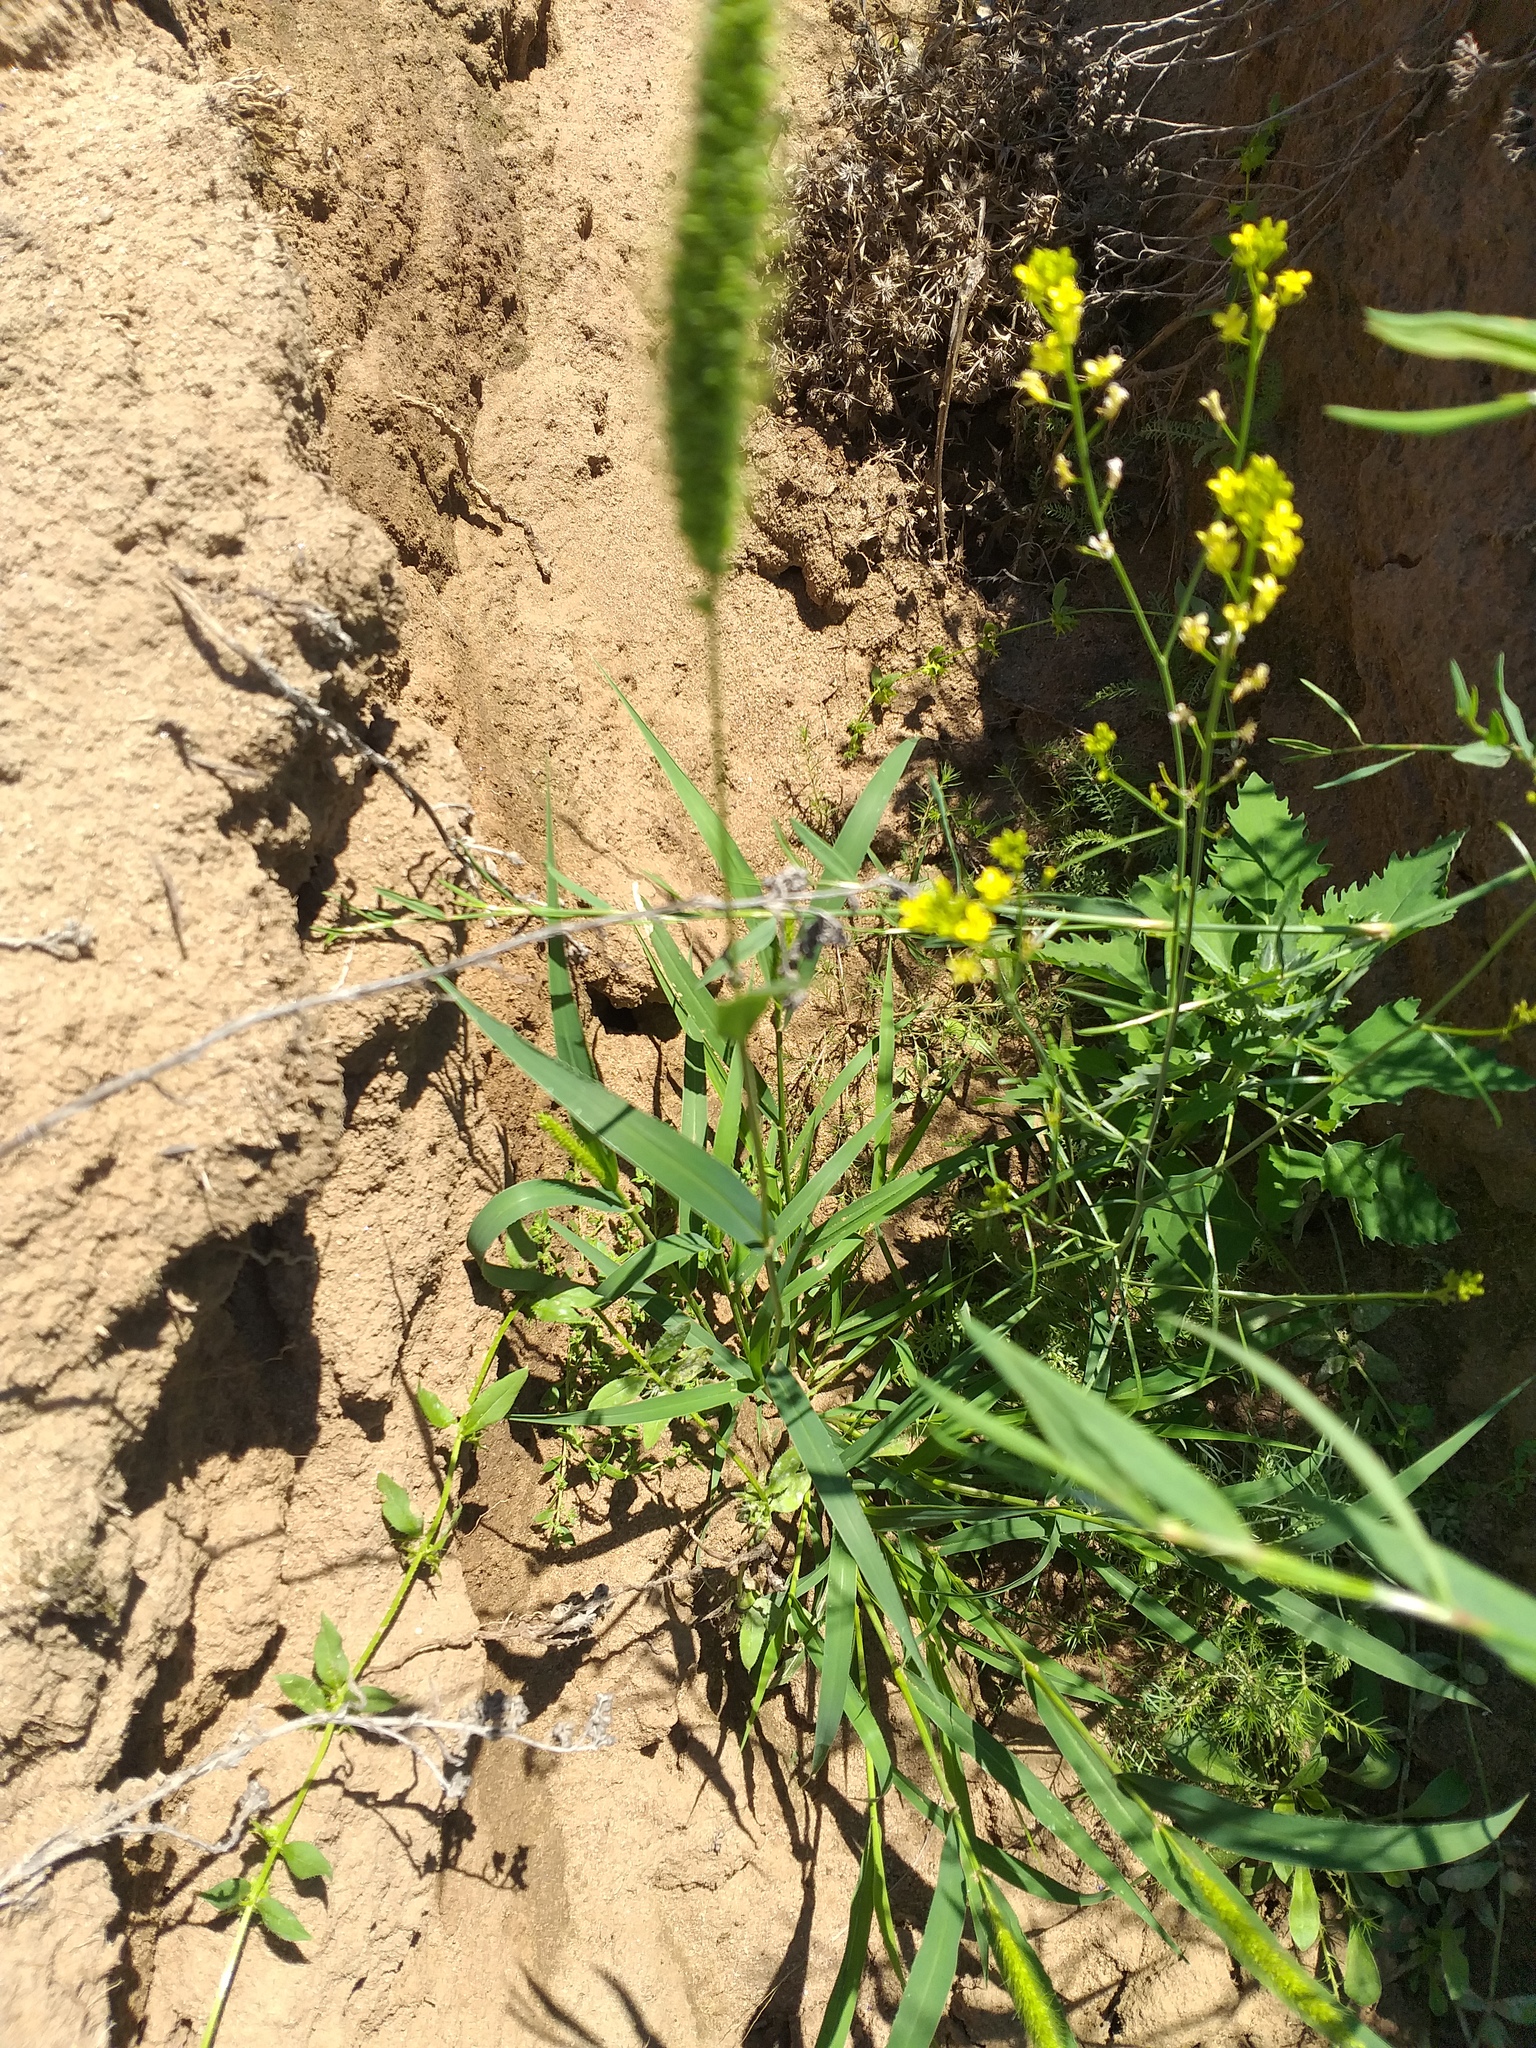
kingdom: Plantae
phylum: Tracheophyta
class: Liliopsida
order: Poales
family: Poaceae
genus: Setaria
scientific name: Setaria viridis
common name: Green bristlegrass
